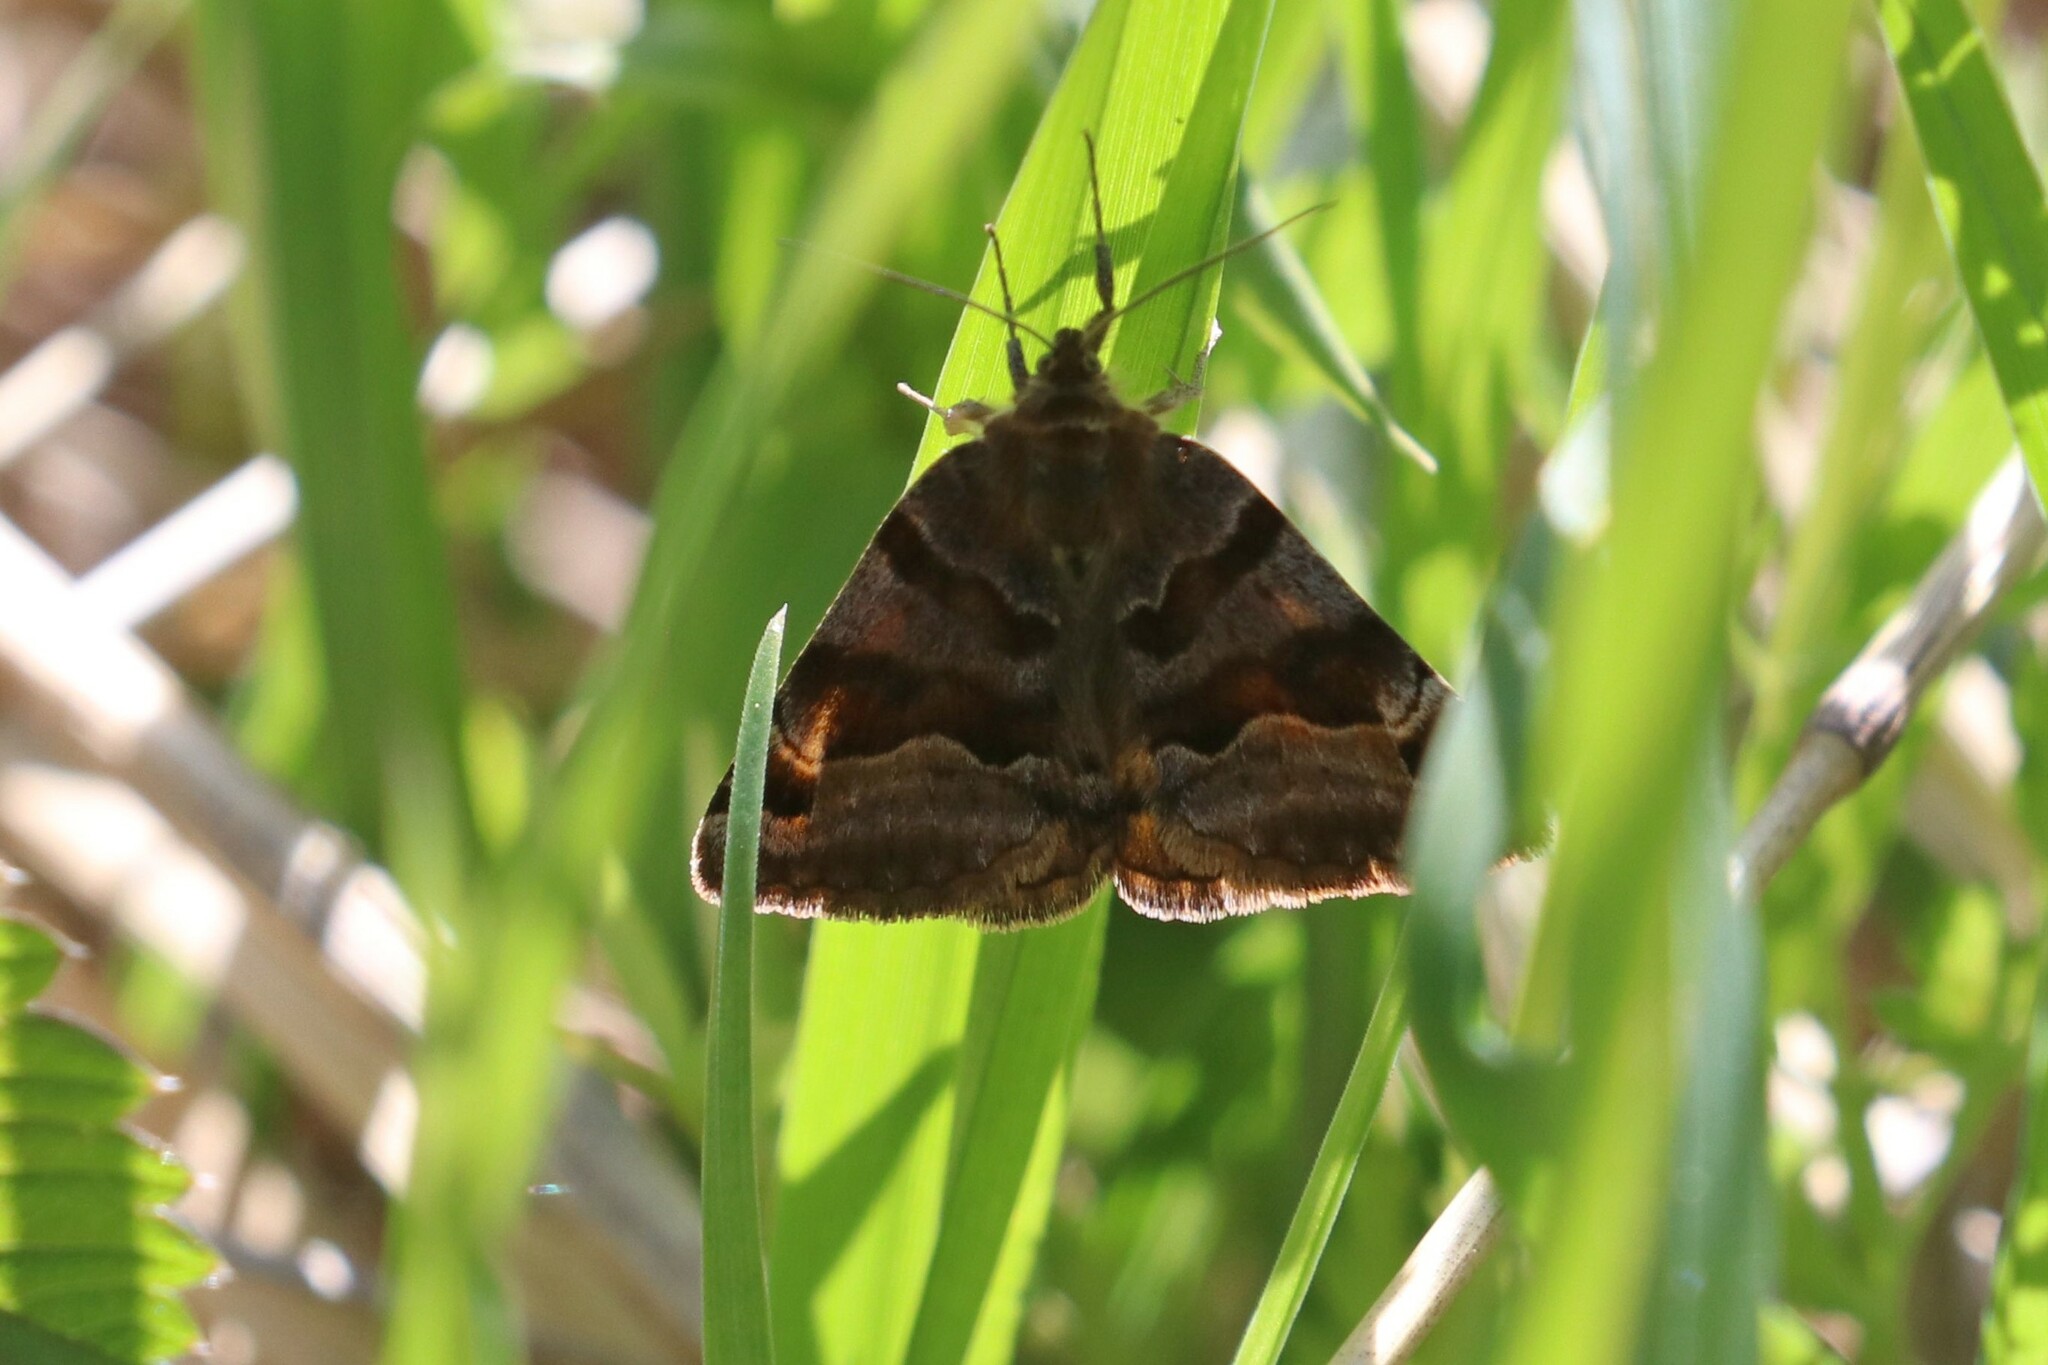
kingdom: Animalia
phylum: Arthropoda
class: Insecta
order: Lepidoptera
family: Erebidae
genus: Euclidia
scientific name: Euclidia glyphica
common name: Burnet companion
